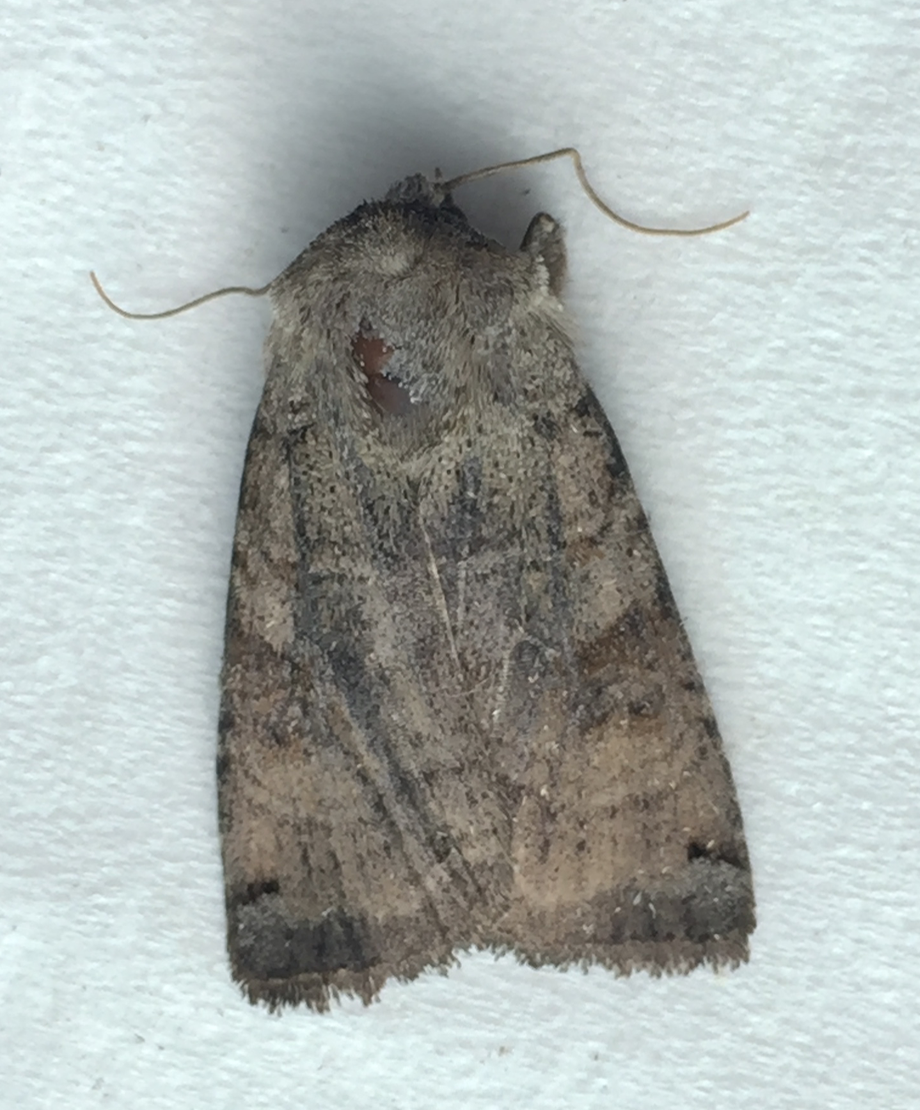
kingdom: Animalia
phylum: Arthropoda
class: Insecta
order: Lepidoptera
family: Noctuidae
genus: Xestia
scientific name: Xestia smithii
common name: Smith's dart
